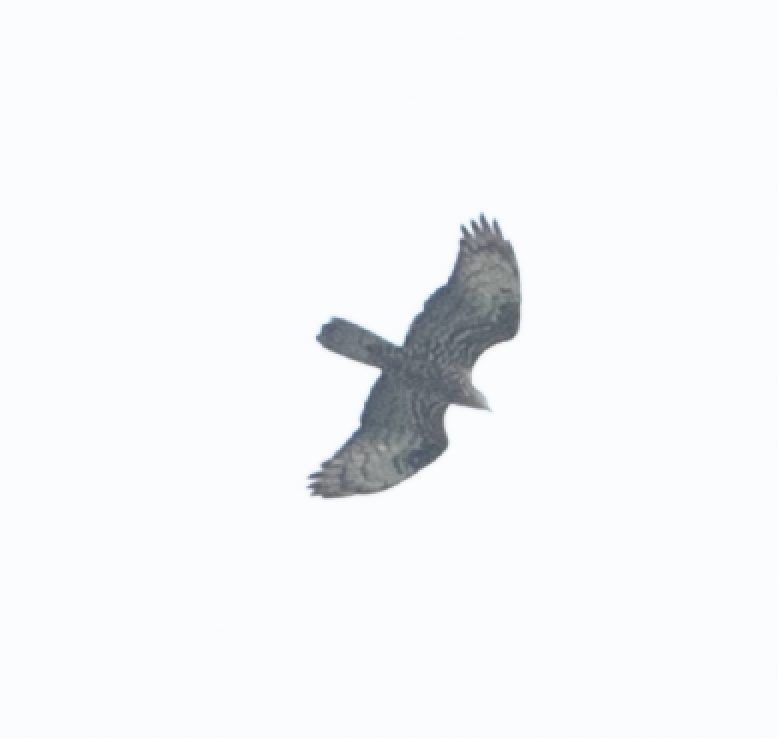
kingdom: Animalia
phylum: Chordata
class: Aves
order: Accipitriformes
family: Accipitridae
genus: Pernis
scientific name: Pernis apivorus
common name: European honey buzzard
